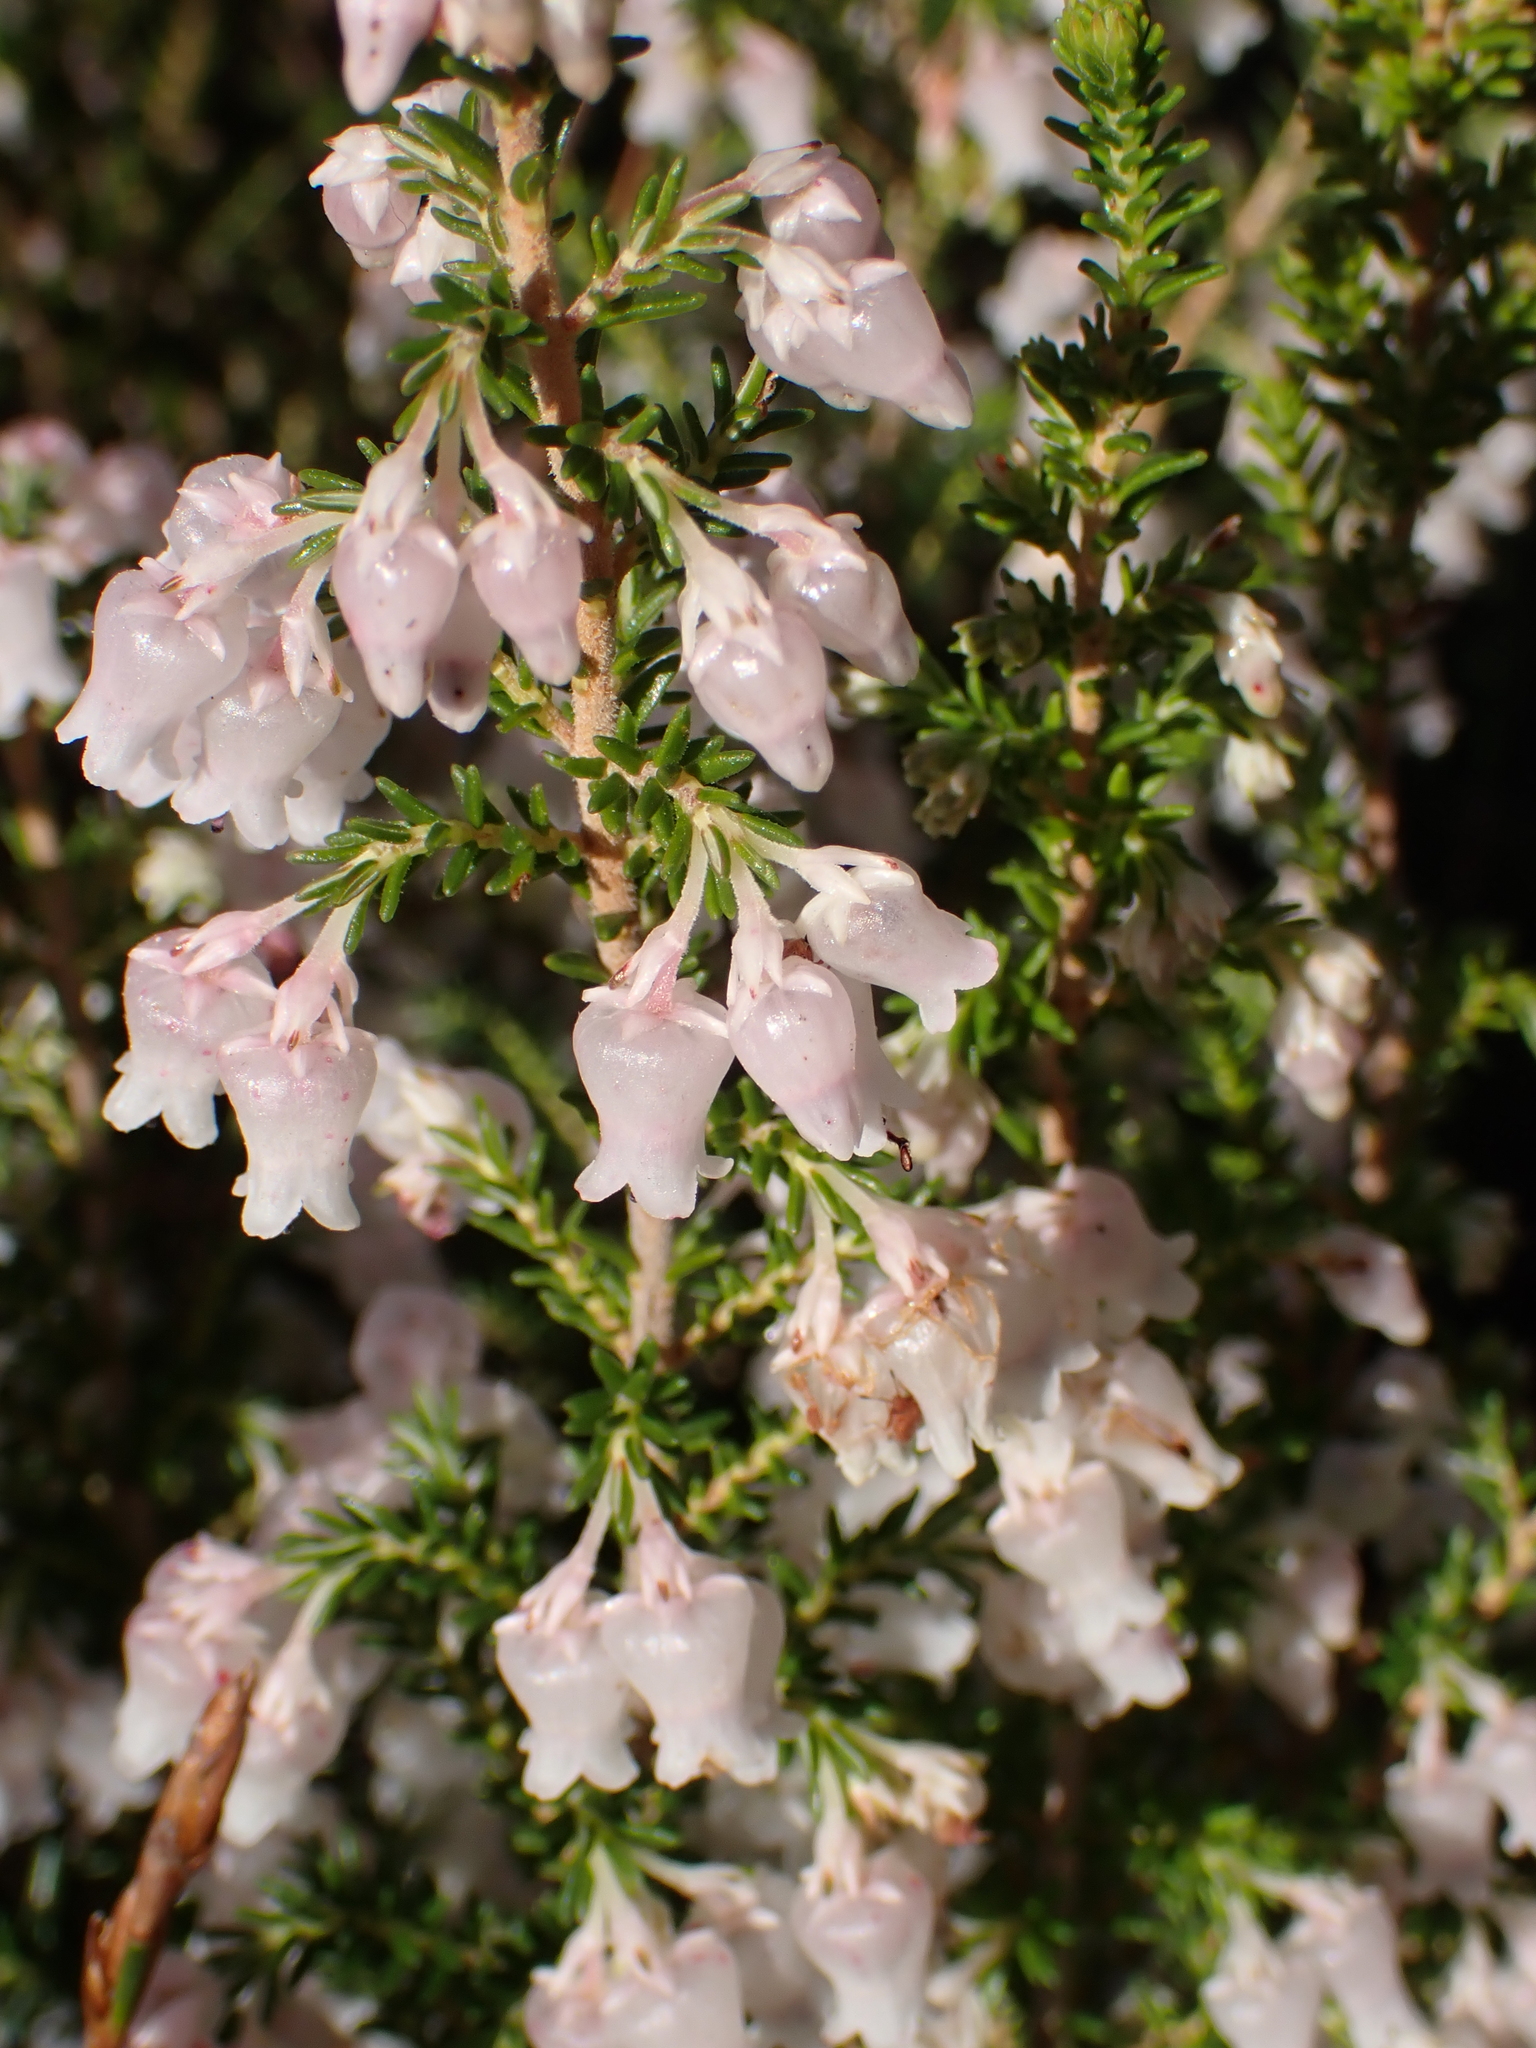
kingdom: Plantae
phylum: Tracheophyta
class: Magnoliopsida
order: Ericales
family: Ericaceae
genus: Erica
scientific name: Erica glomiflora
